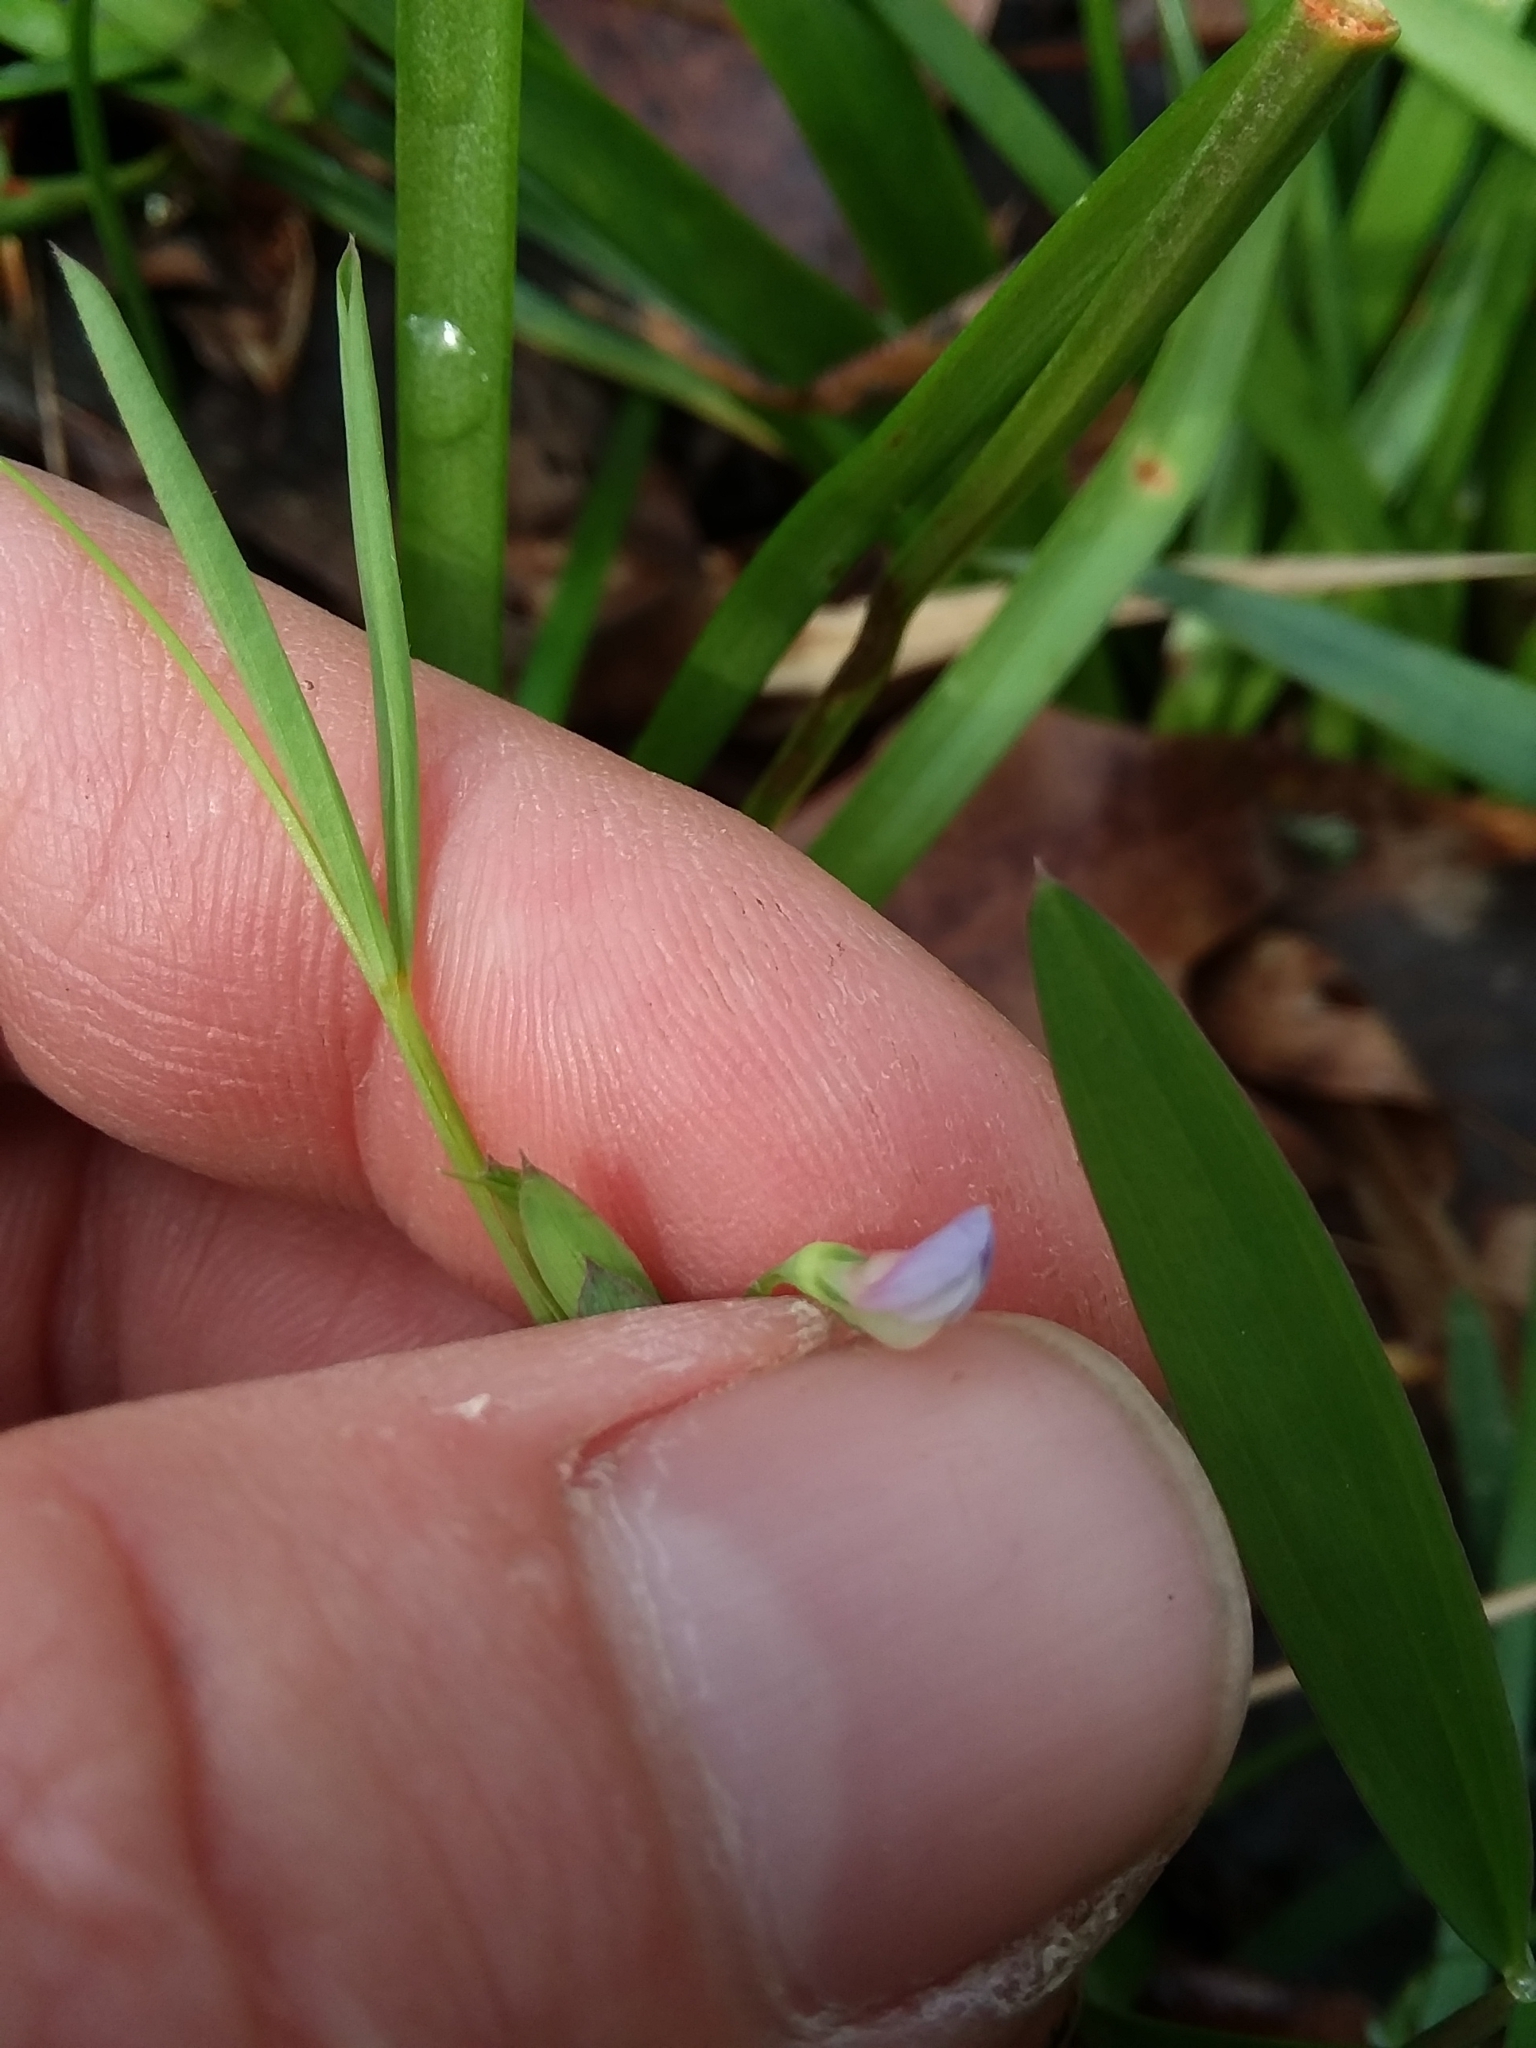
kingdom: Plantae
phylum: Tracheophyta
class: Magnoliopsida
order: Fabales
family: Fabaceae
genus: Lathyrus
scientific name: Lathyrus pusillus
